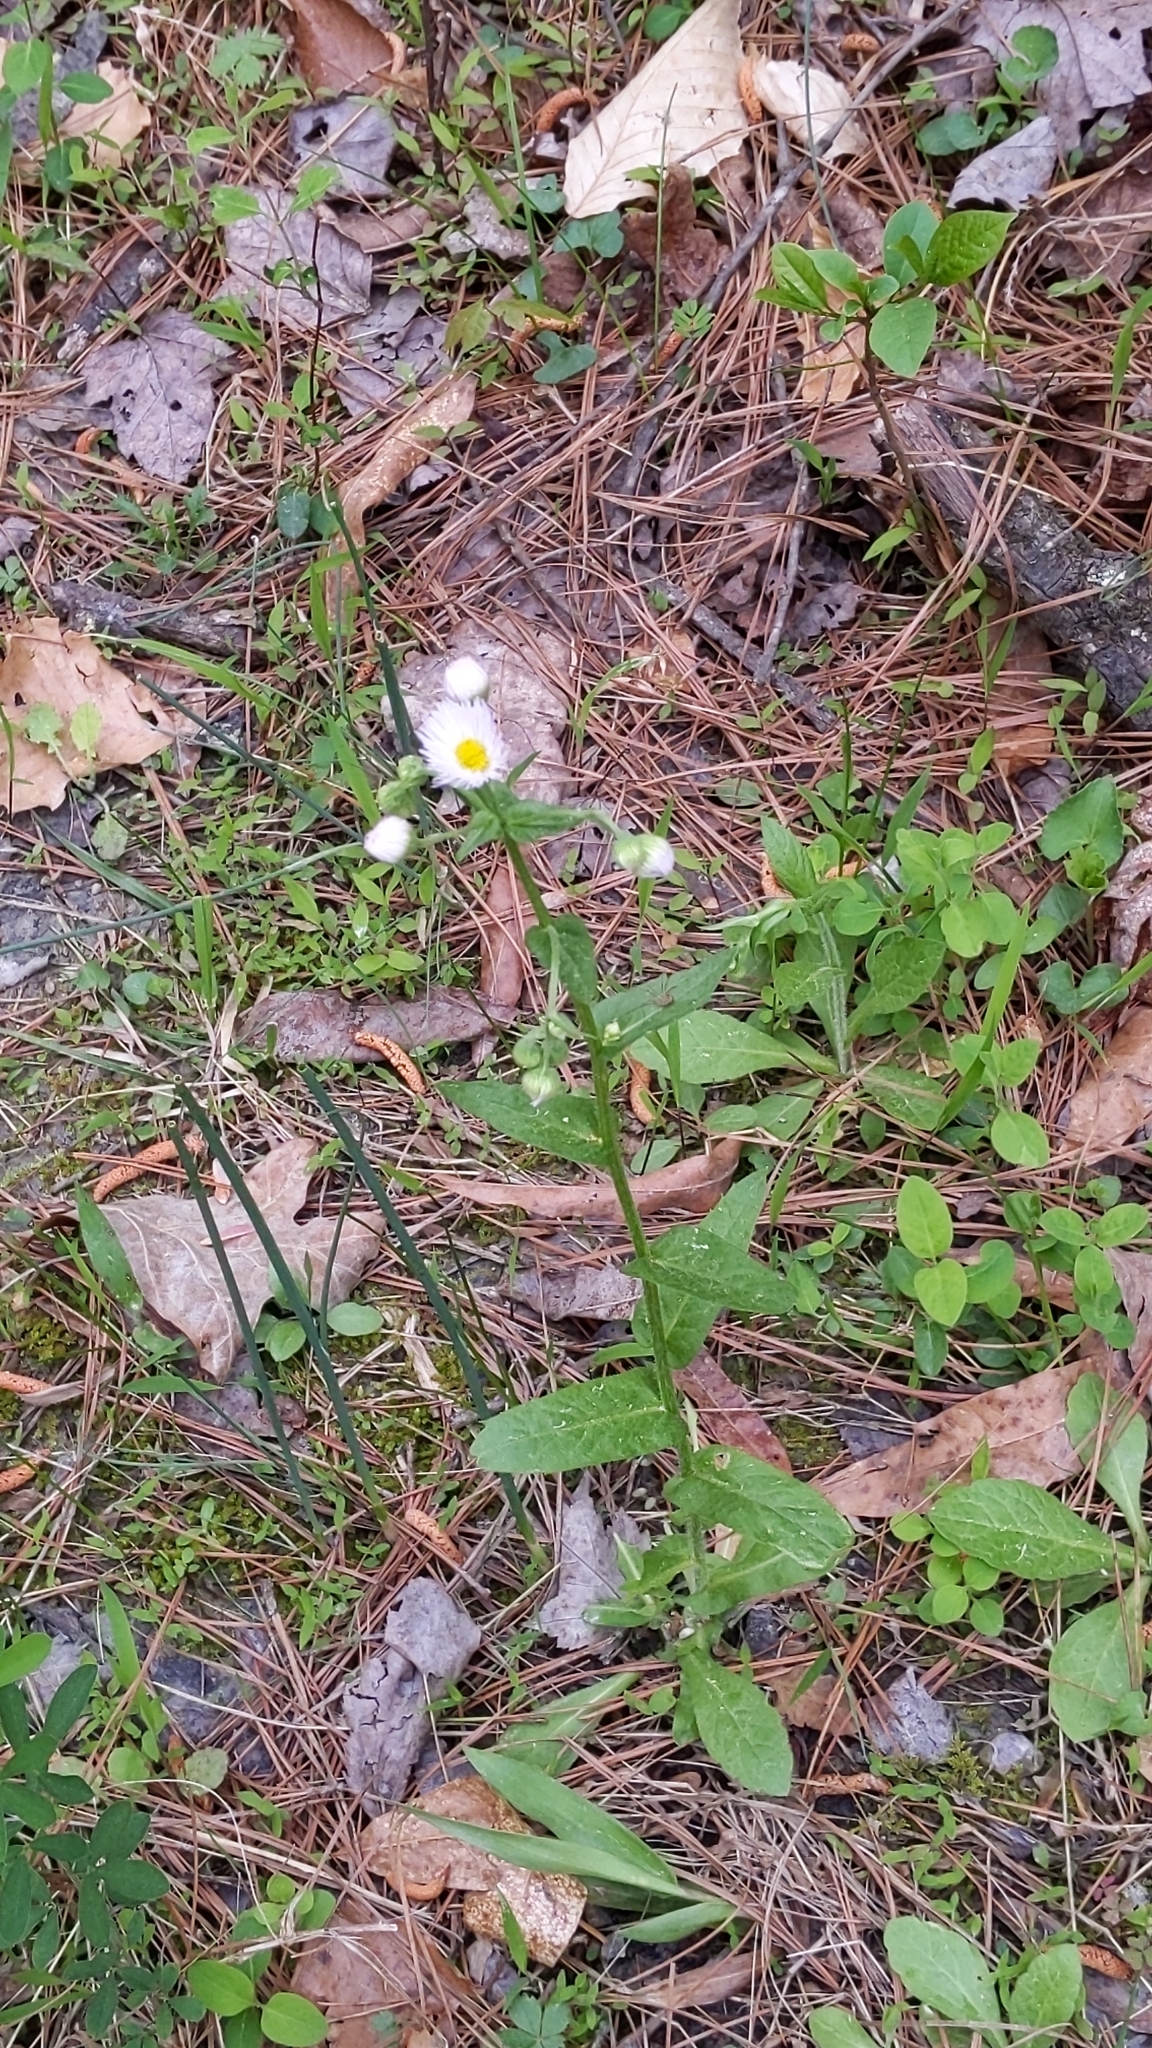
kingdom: Plantae
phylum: Tracheophyta
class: Magnoliopsida
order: Asterales
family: Asteraceae
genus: Erigeron
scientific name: Erigeron philadelphicus
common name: Robin's-plantain
